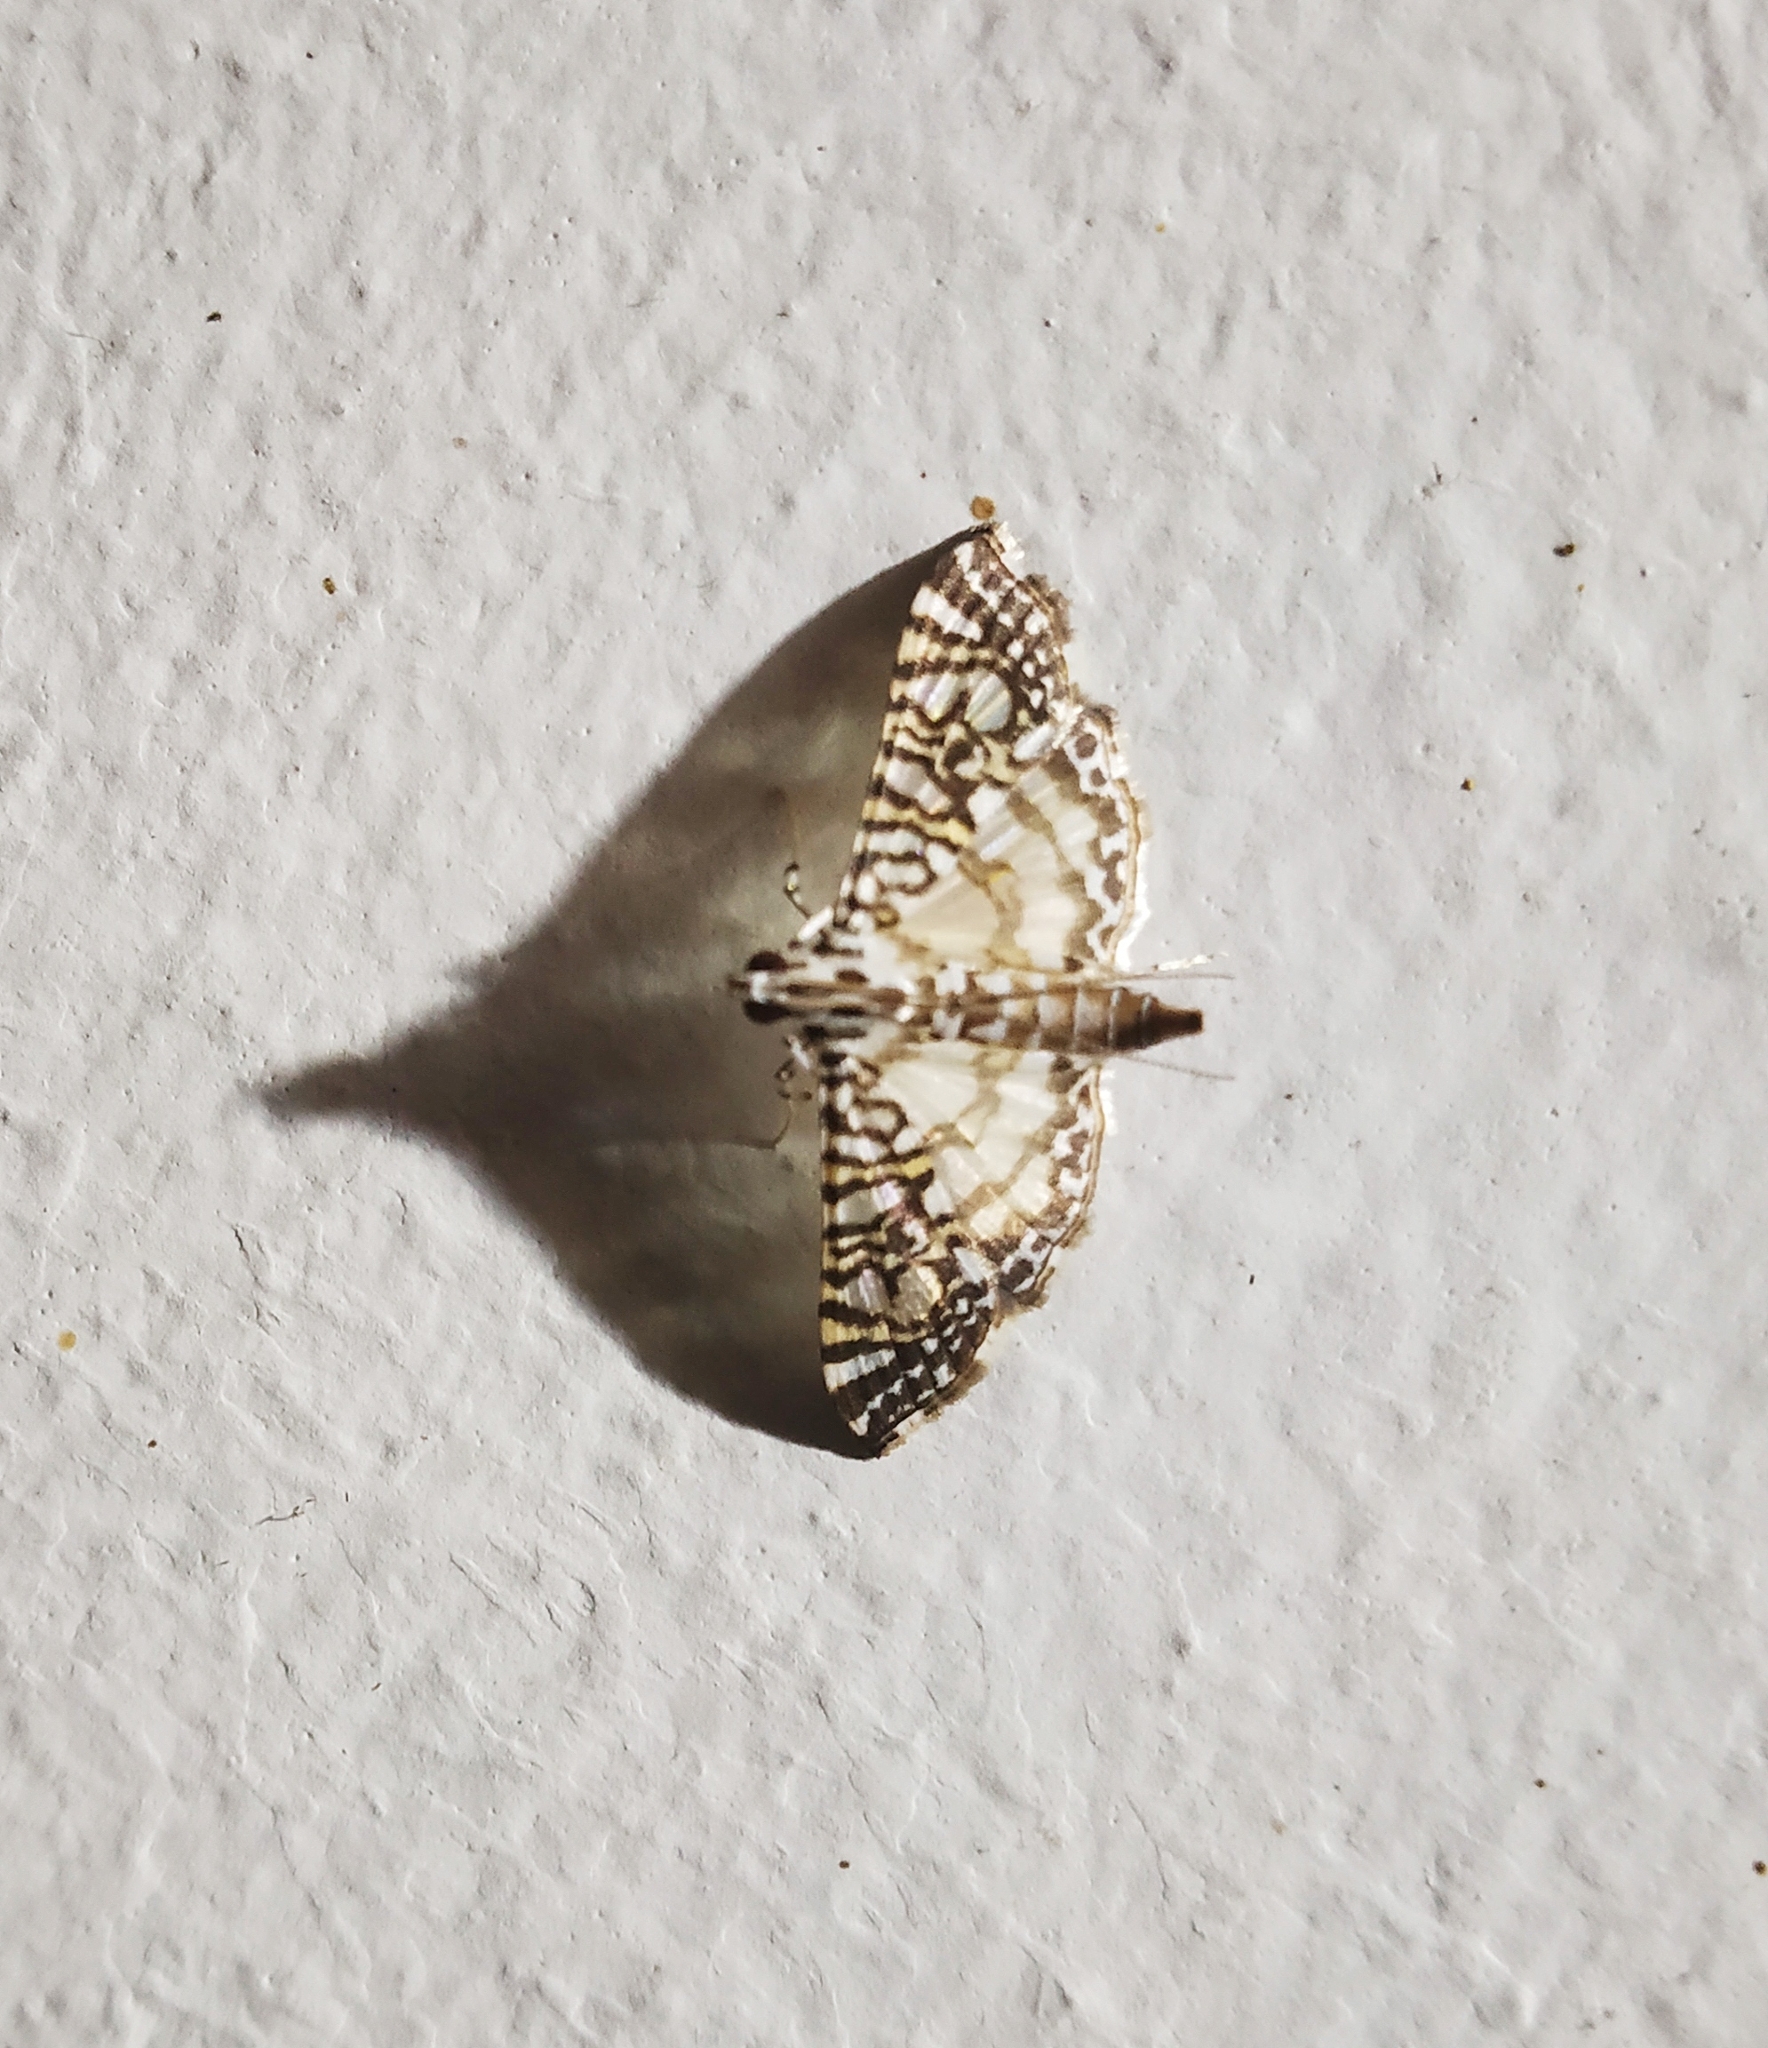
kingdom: Animalia
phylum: Arthropoda
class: Insecta
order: Lepidoptera
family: Crambidae
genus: Glyphodes
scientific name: Glyphodes onychinalis
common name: Swan plant moth
